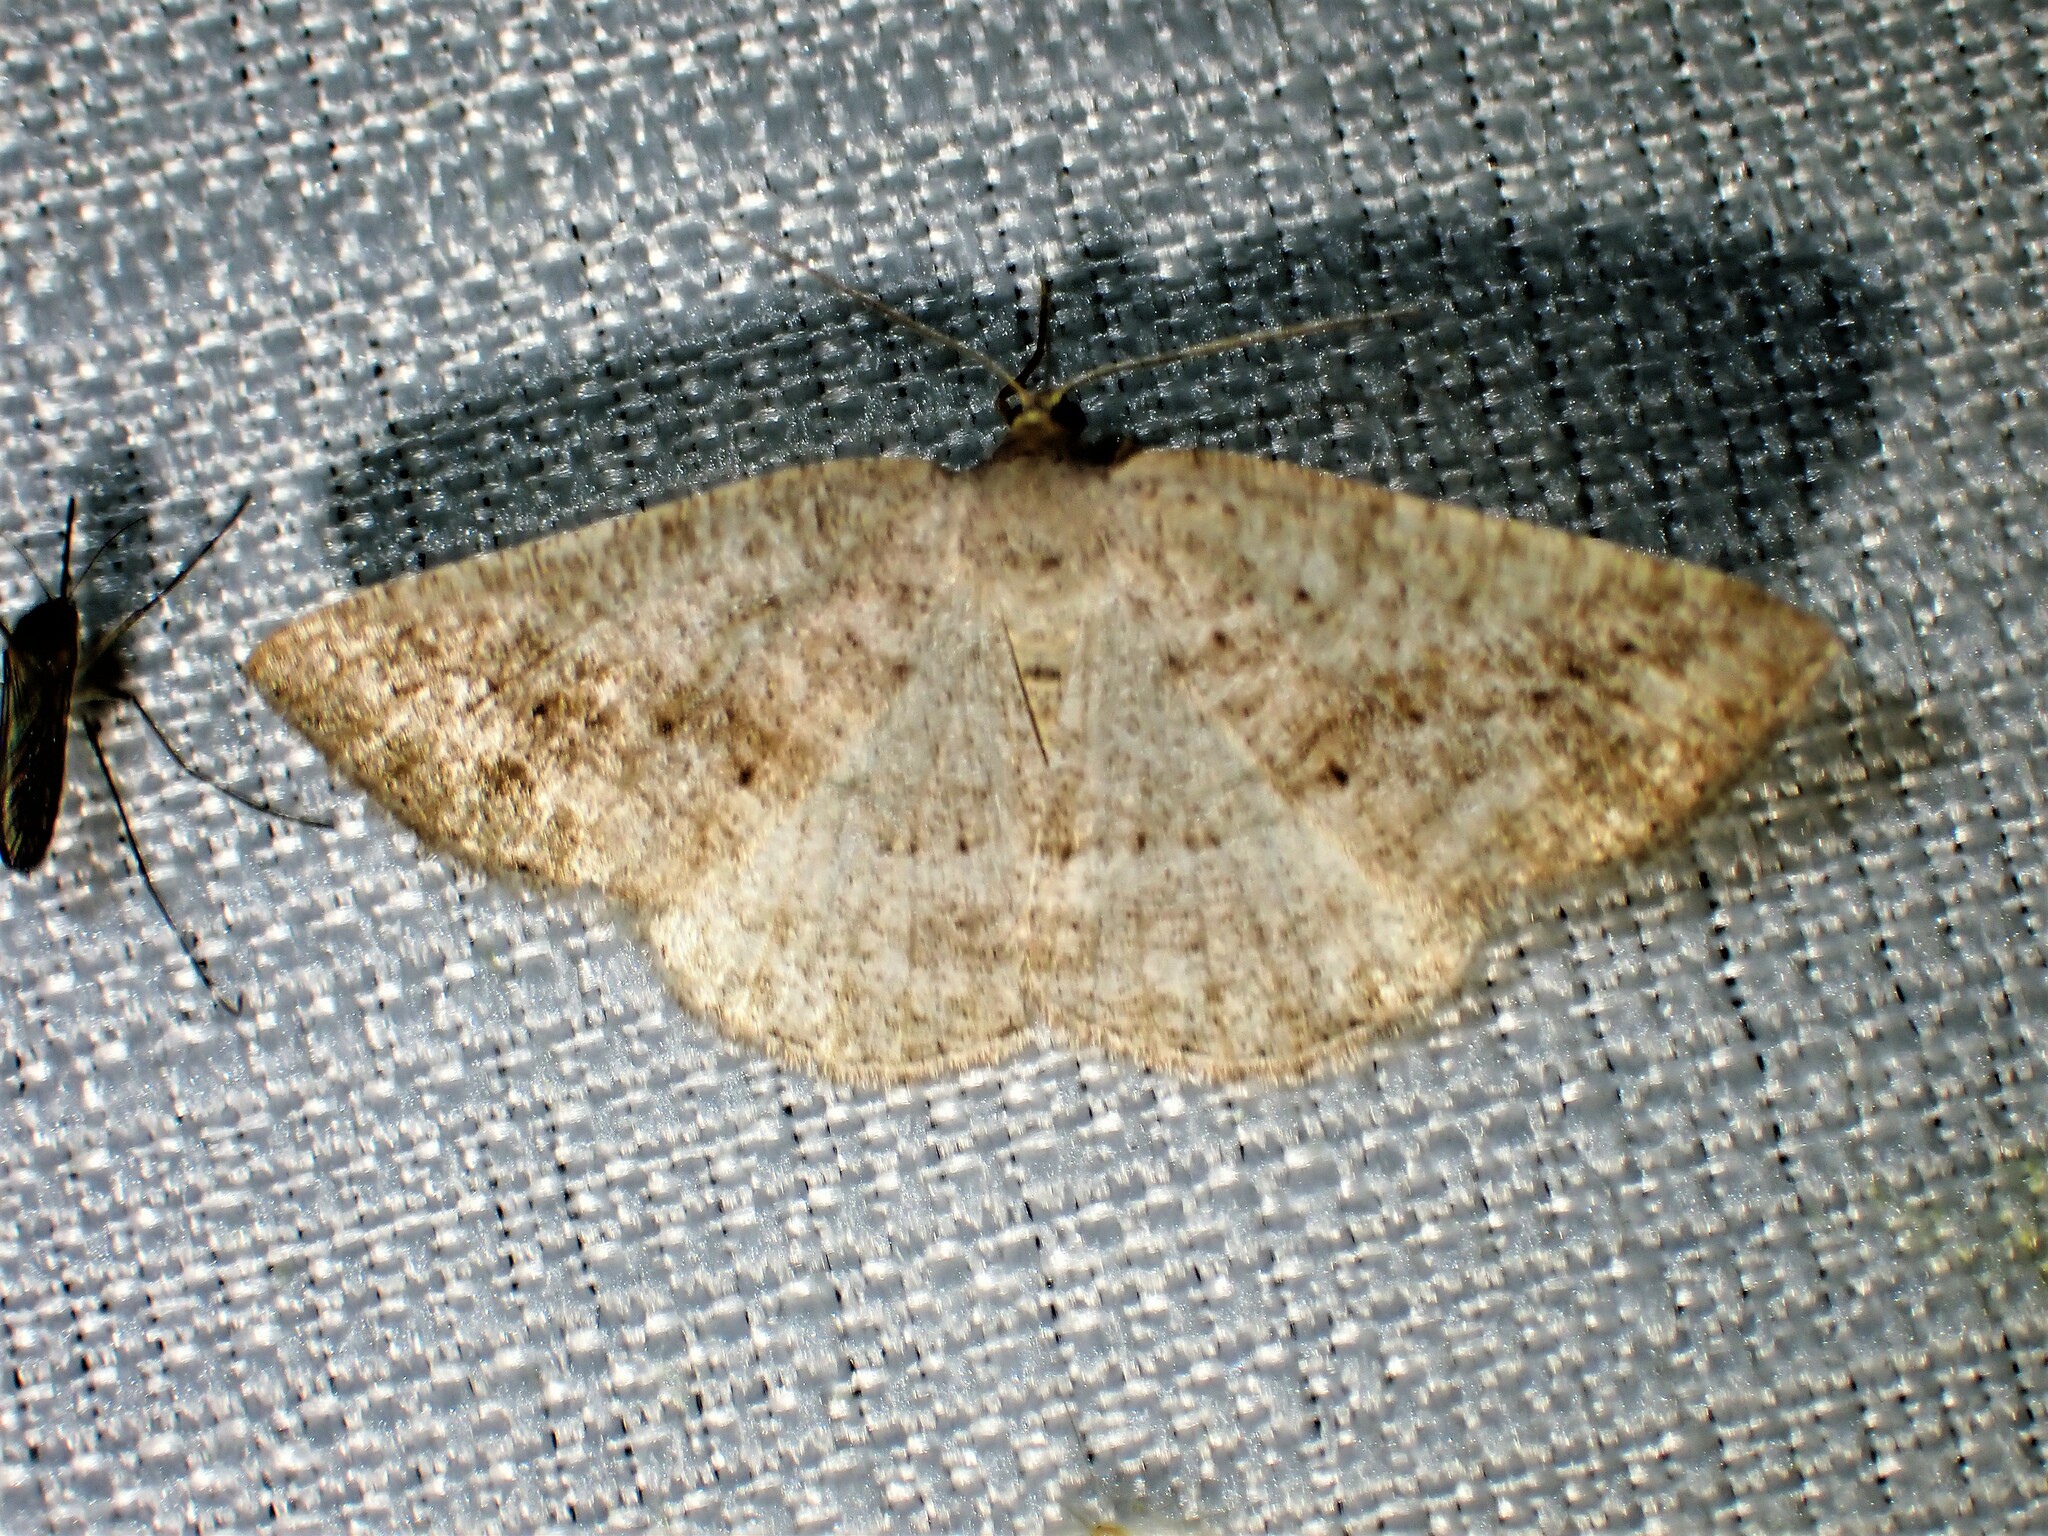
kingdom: Animalia
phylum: Arthropoda
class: Insecta
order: Lepidoptera
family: Geometridae
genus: Tacparia
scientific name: Tacparia detersata
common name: Pale alder moth
